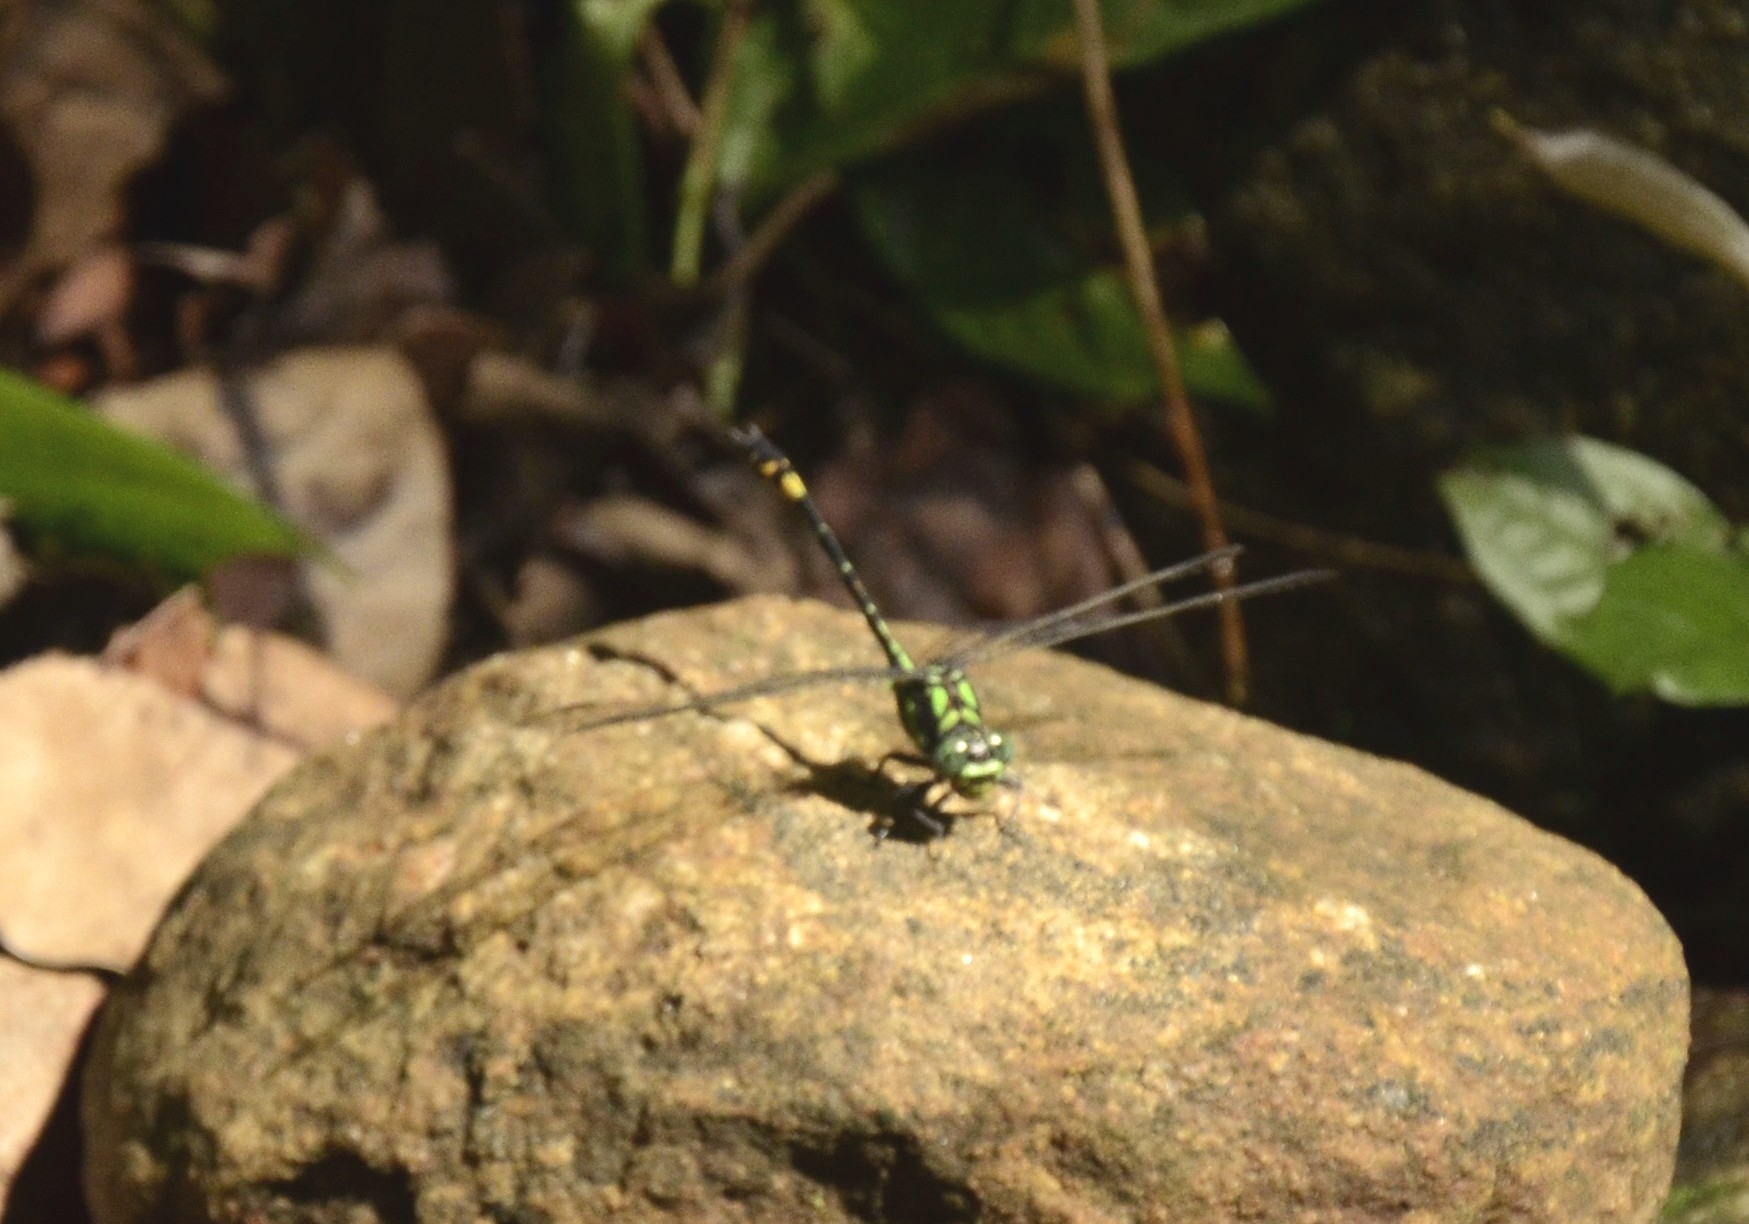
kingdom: Animalia
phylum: Arthropoda
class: Insecta
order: Odonata
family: Gomphidae
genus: Megalogomphus
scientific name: Megalogomphus hannyngtoni
